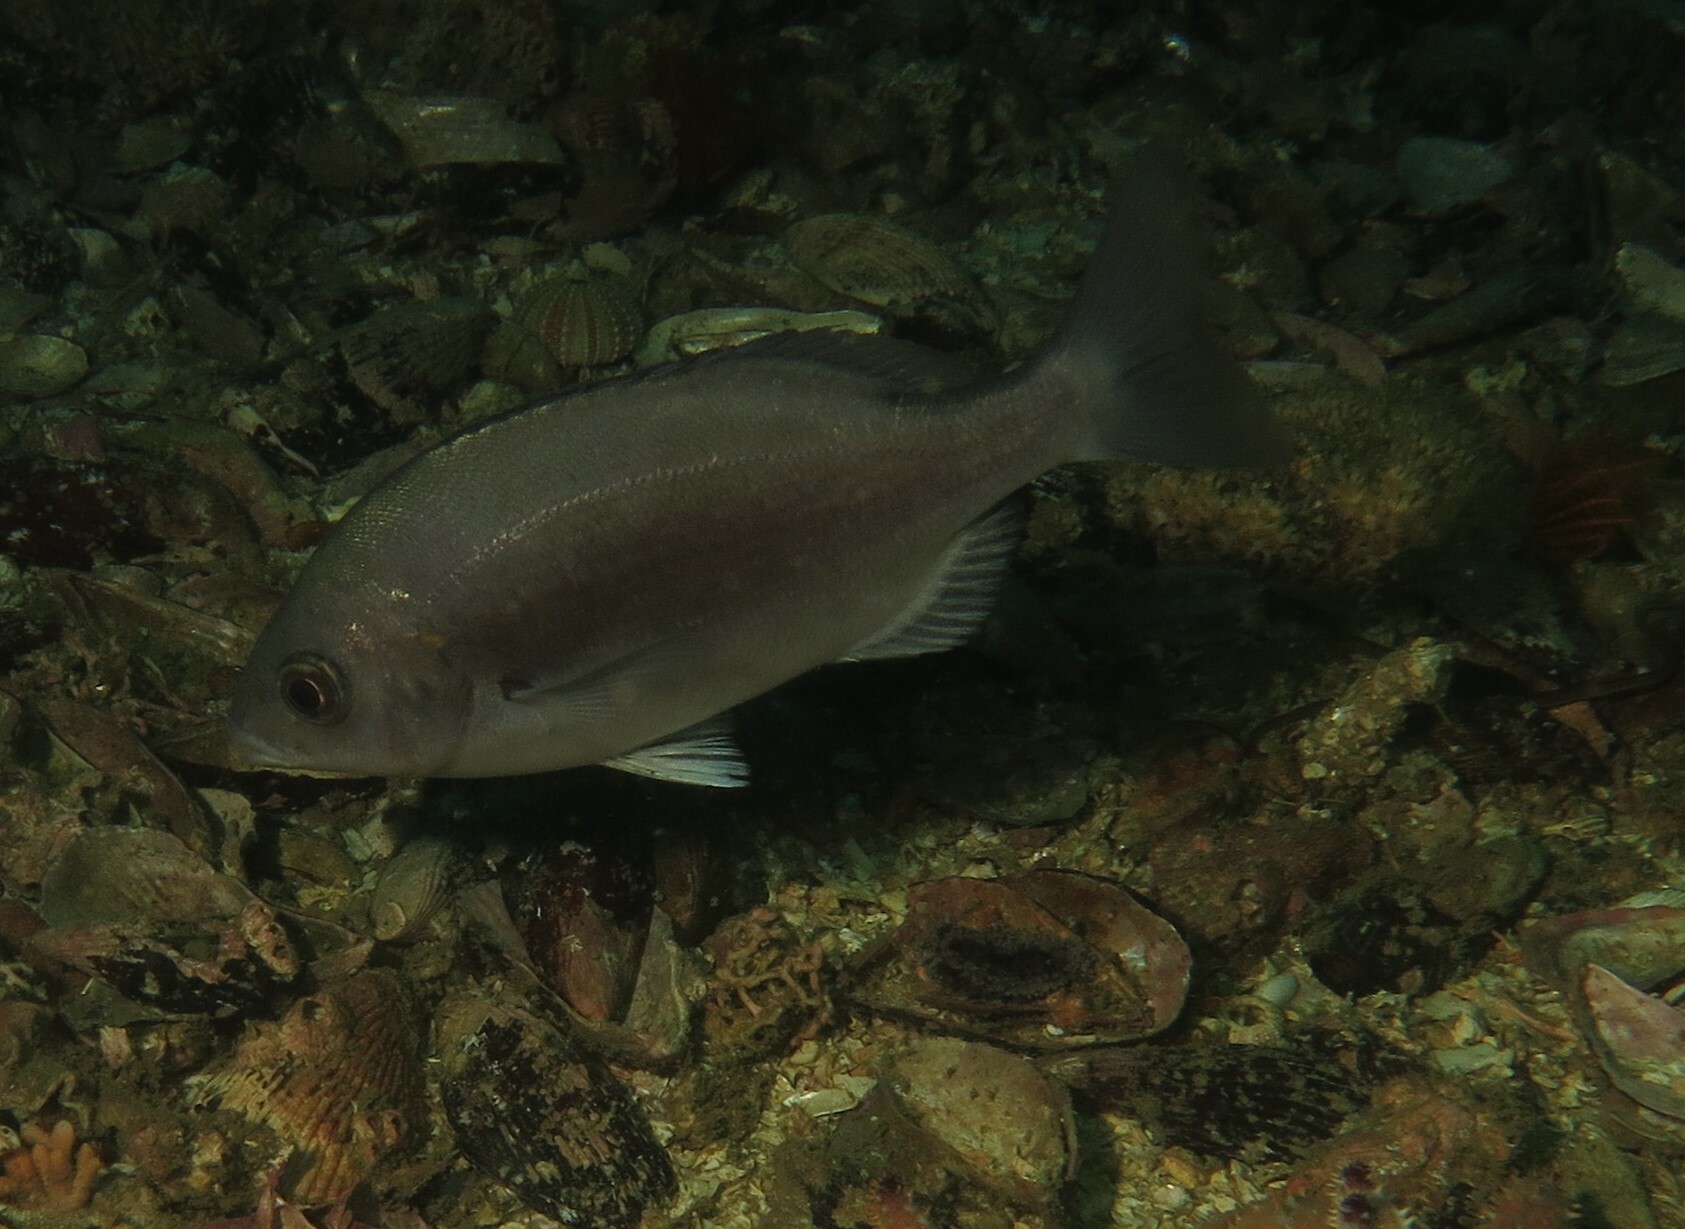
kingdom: Animalia
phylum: Chordata
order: Perciformes
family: Sparidae
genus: Pachymetopon
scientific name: Pachymetopon blochii
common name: Hottentot
